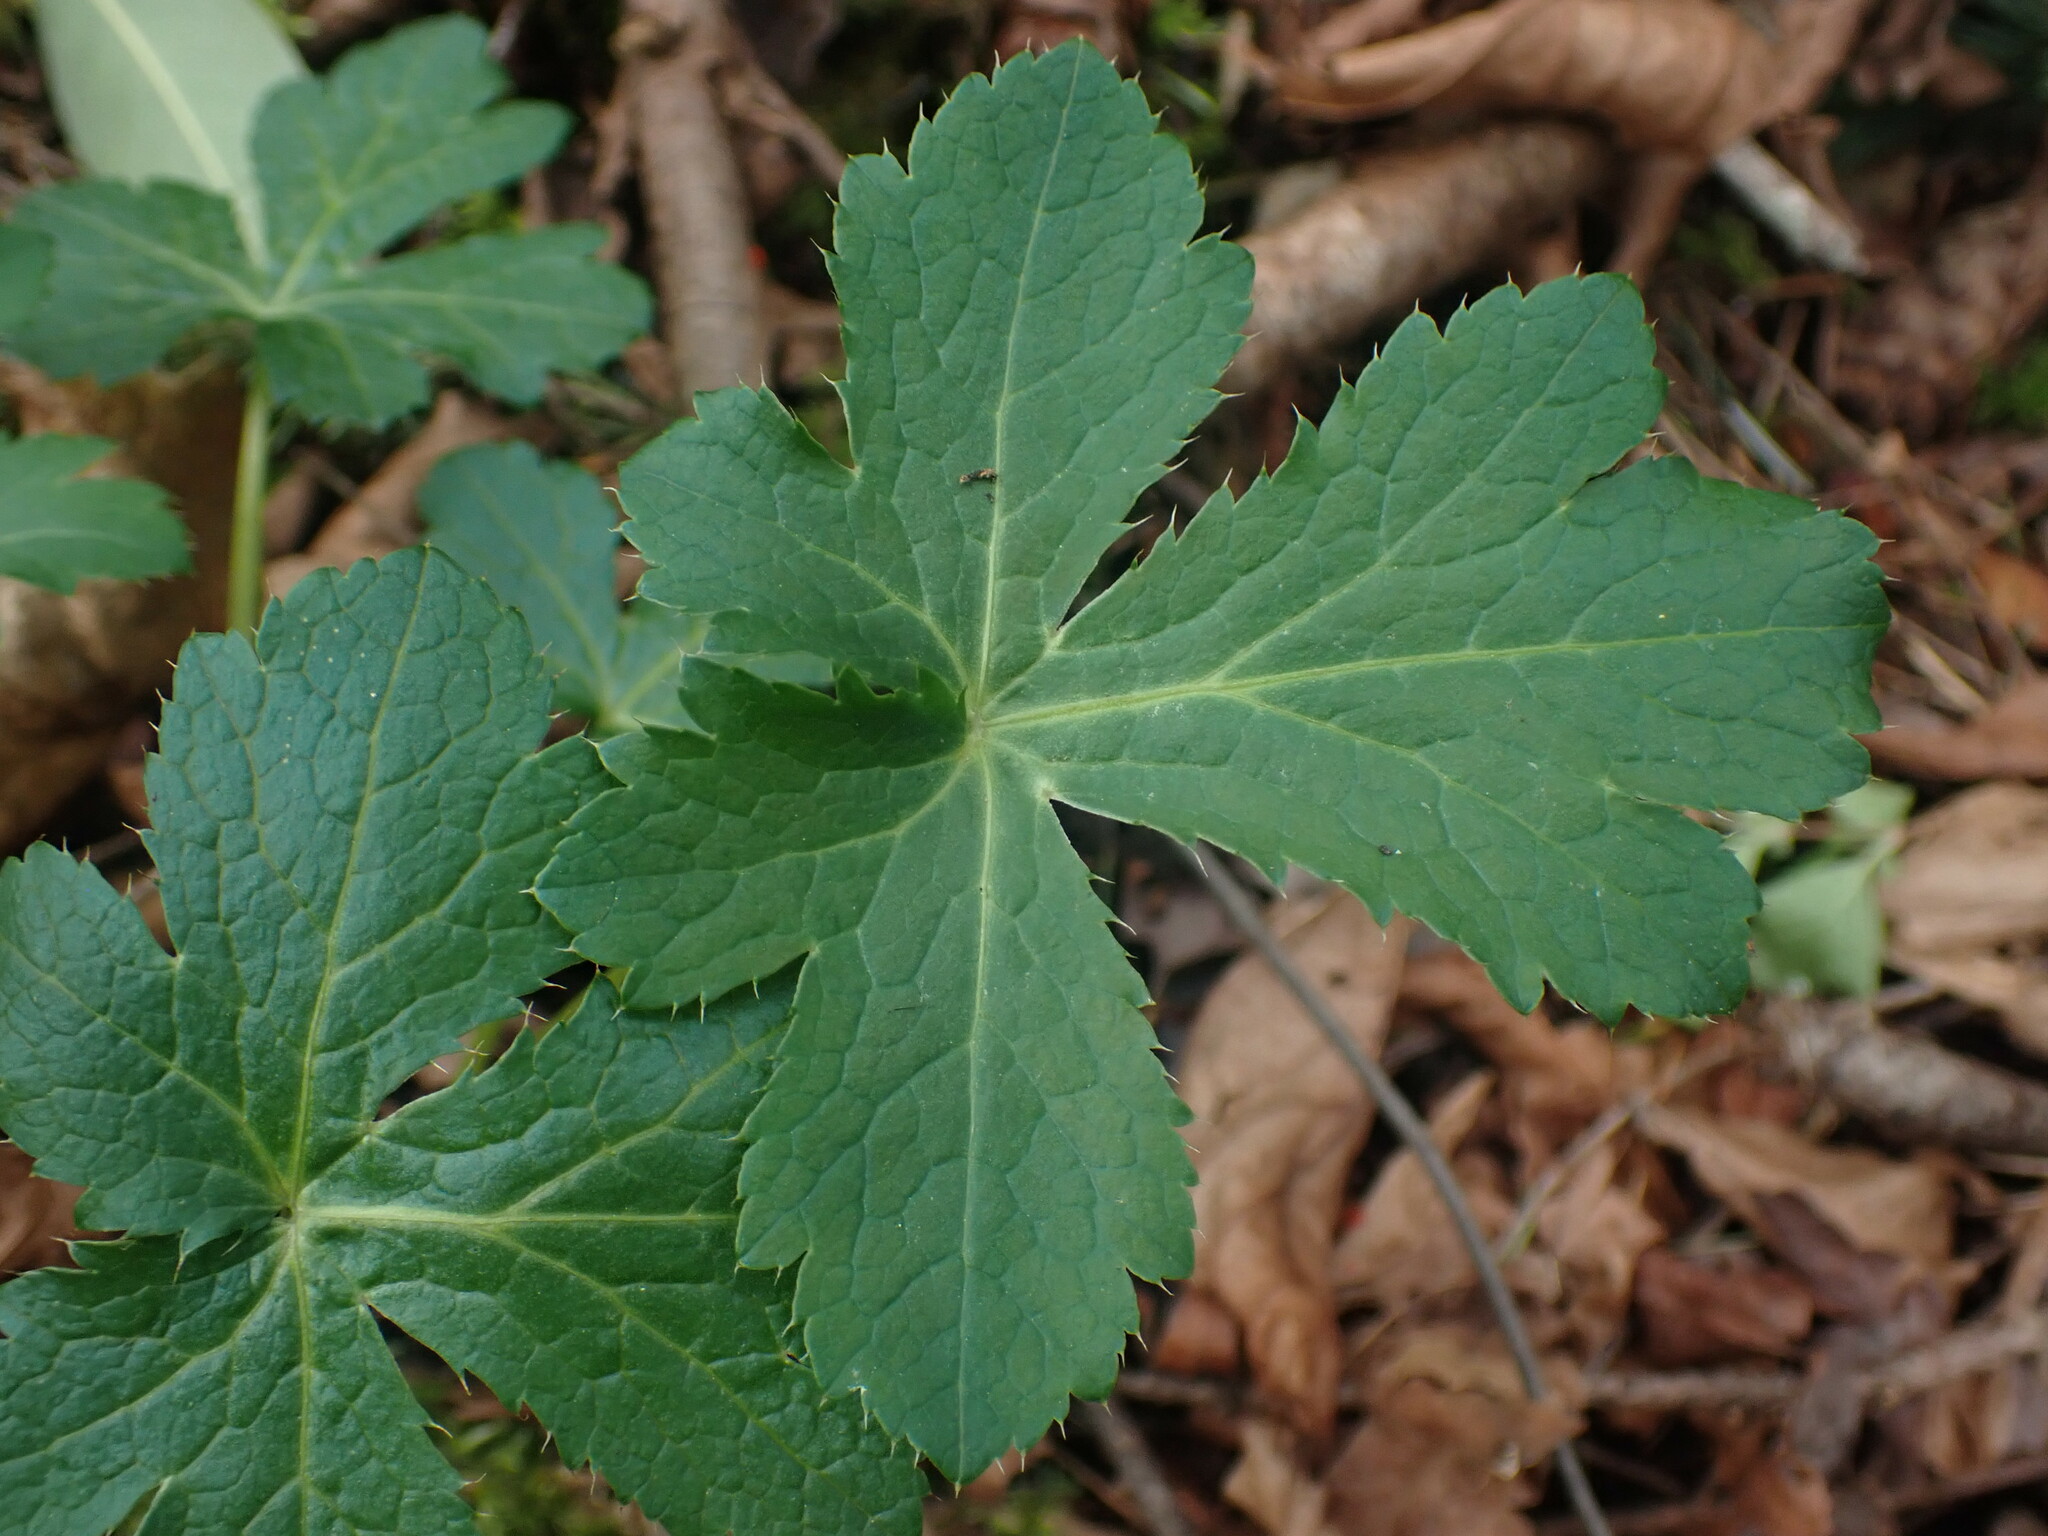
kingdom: Plantae
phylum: Tracheophyta
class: Magnoliopsida
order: Apiales
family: Apiaceae
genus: Sanicula
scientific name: Sanicula crassicaulis
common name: Western snakeroot
